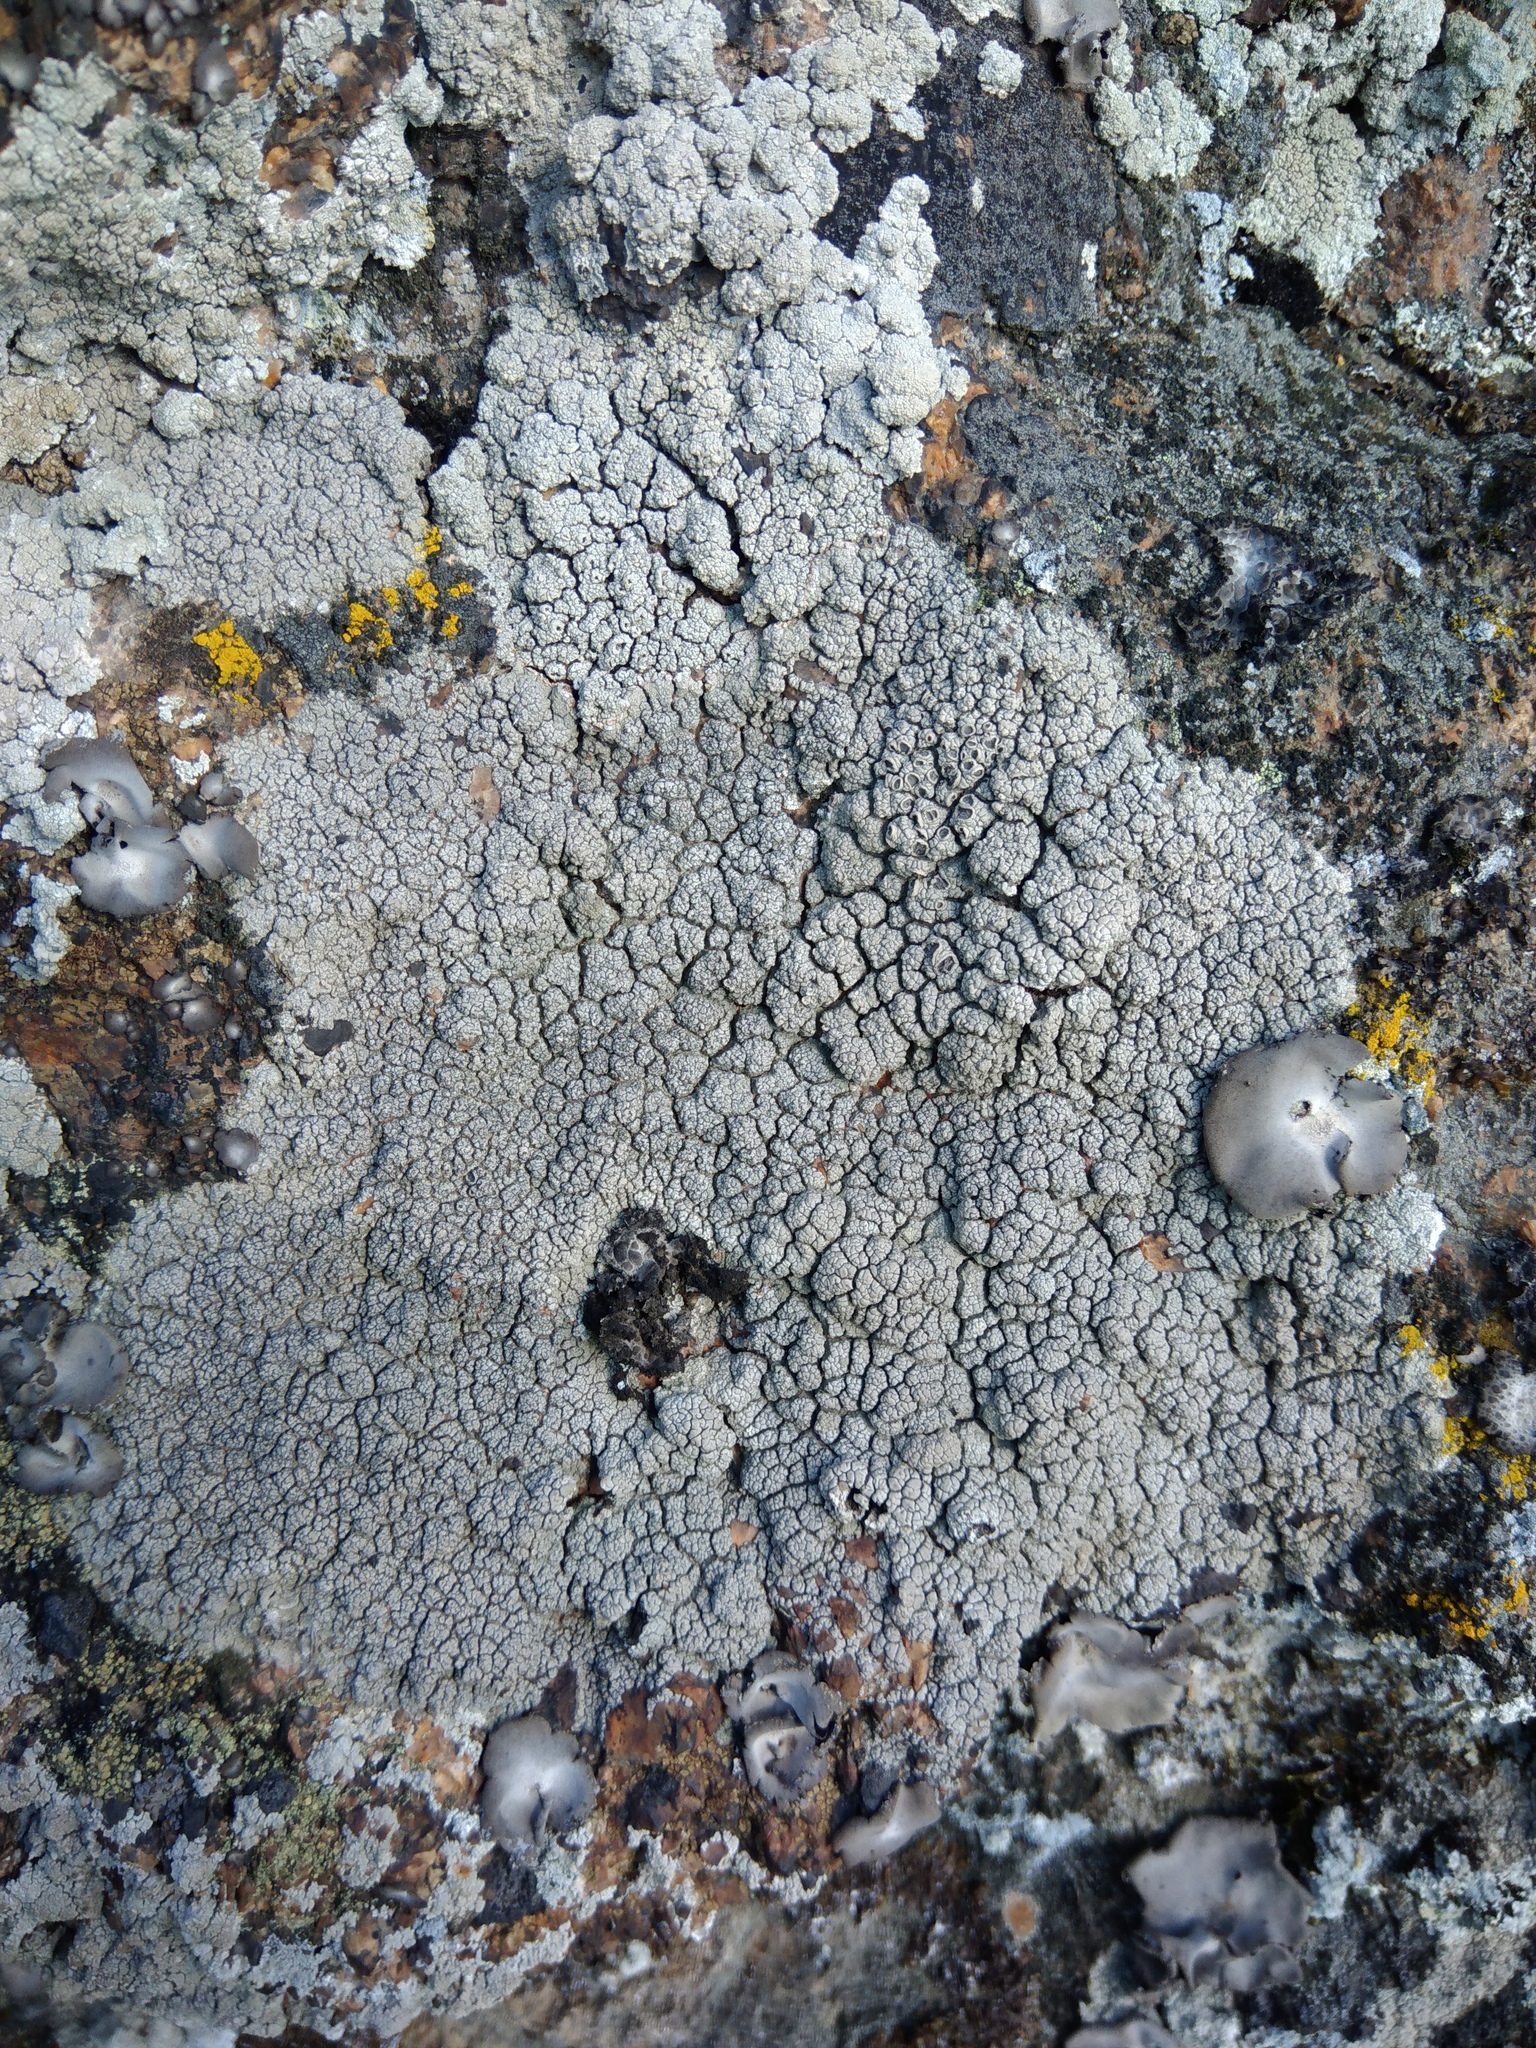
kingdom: Fungi
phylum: Ascomycota
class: Lecanoromycetes
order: Ostropales
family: Graphidaceae
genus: Diploschistes
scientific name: Diploschistes scruposus
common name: Crater lichen
